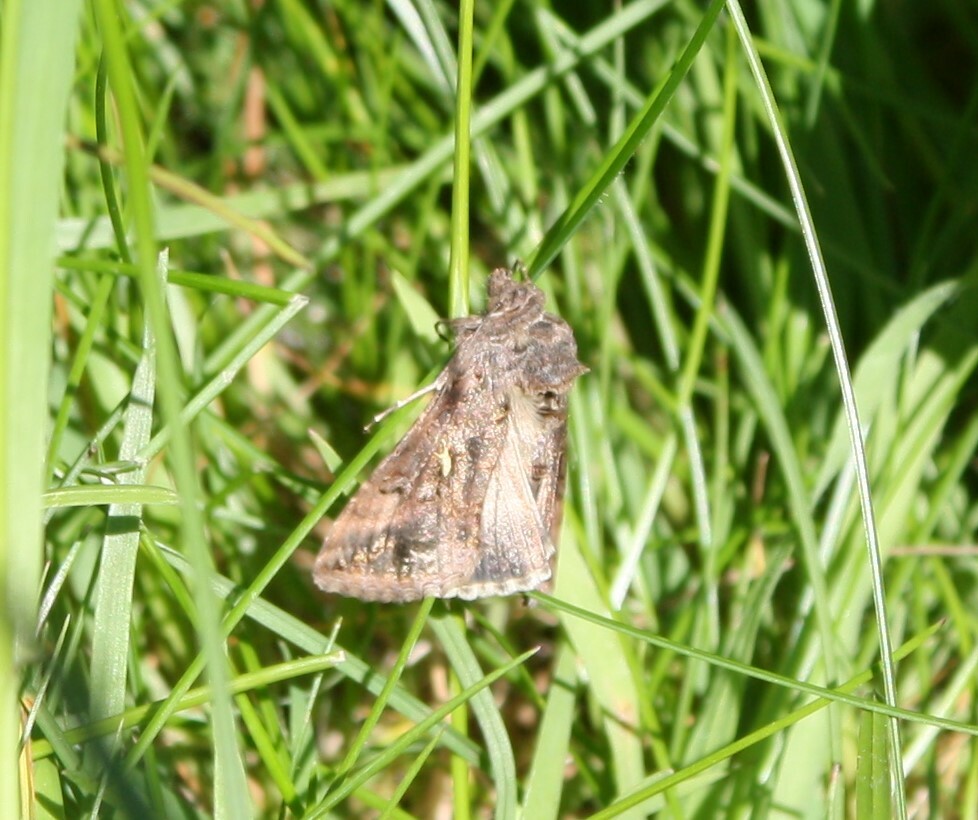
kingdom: Animalia
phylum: Arthropoda
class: Insecta
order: Lepidoptera
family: Noctuidae
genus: Autographa
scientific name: Autographa gamma
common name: Silver y
